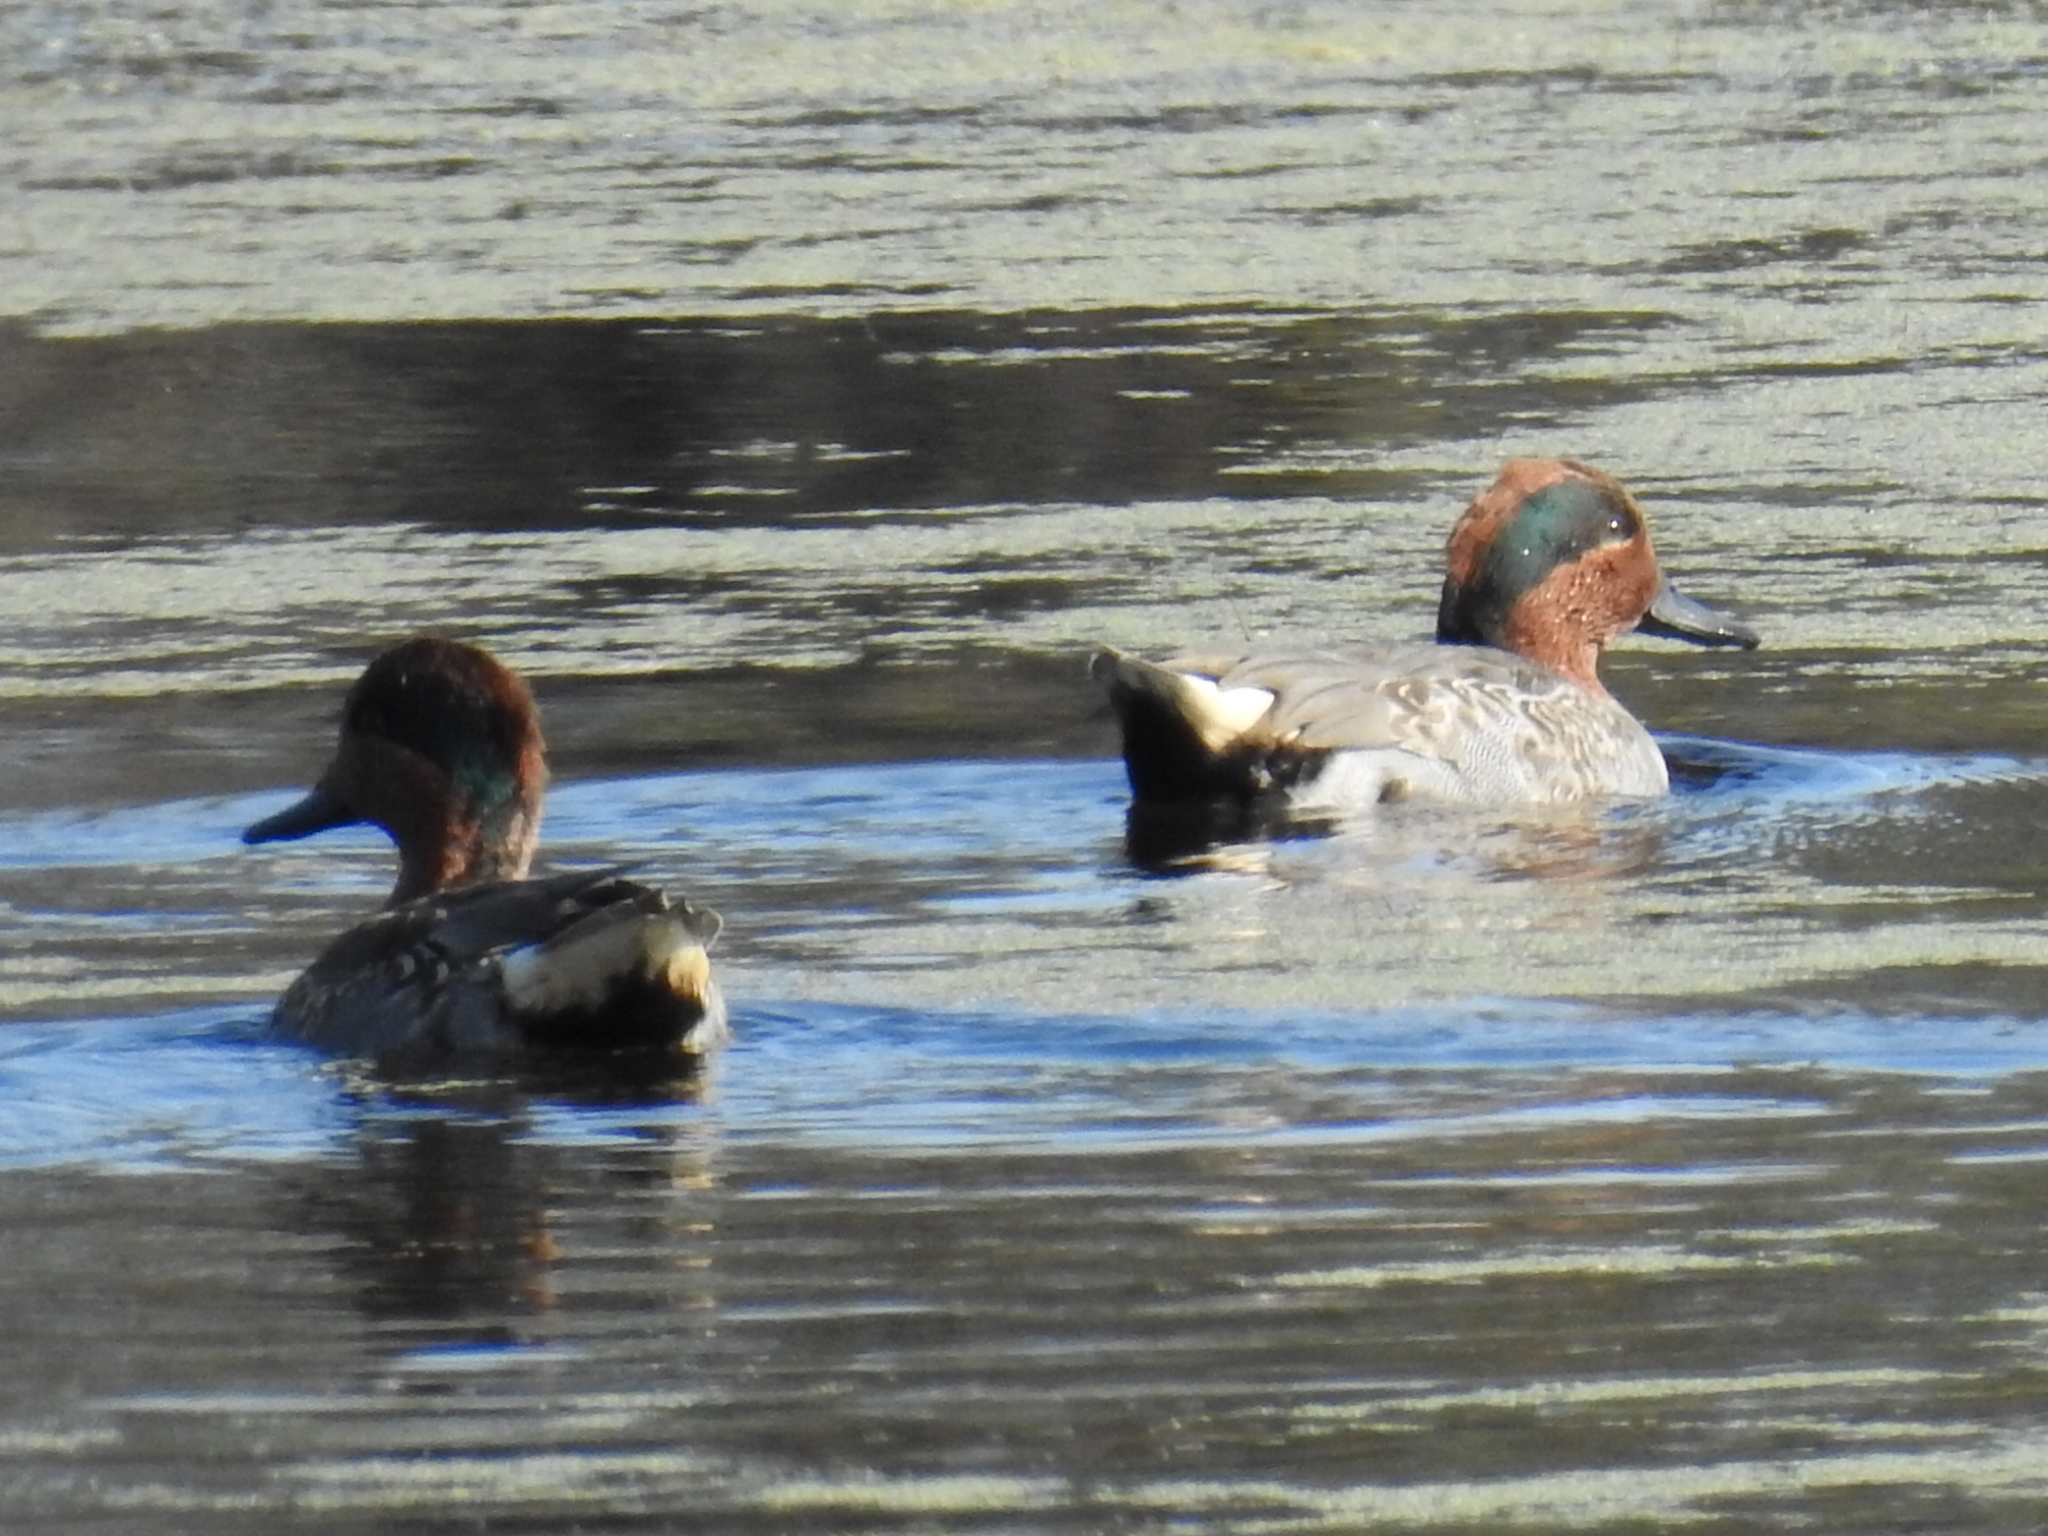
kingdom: Animalia
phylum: Chordata
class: Aves
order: Anseriformes
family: Anatidae
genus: Anas
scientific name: Anas crecca
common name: Eurasian teal
